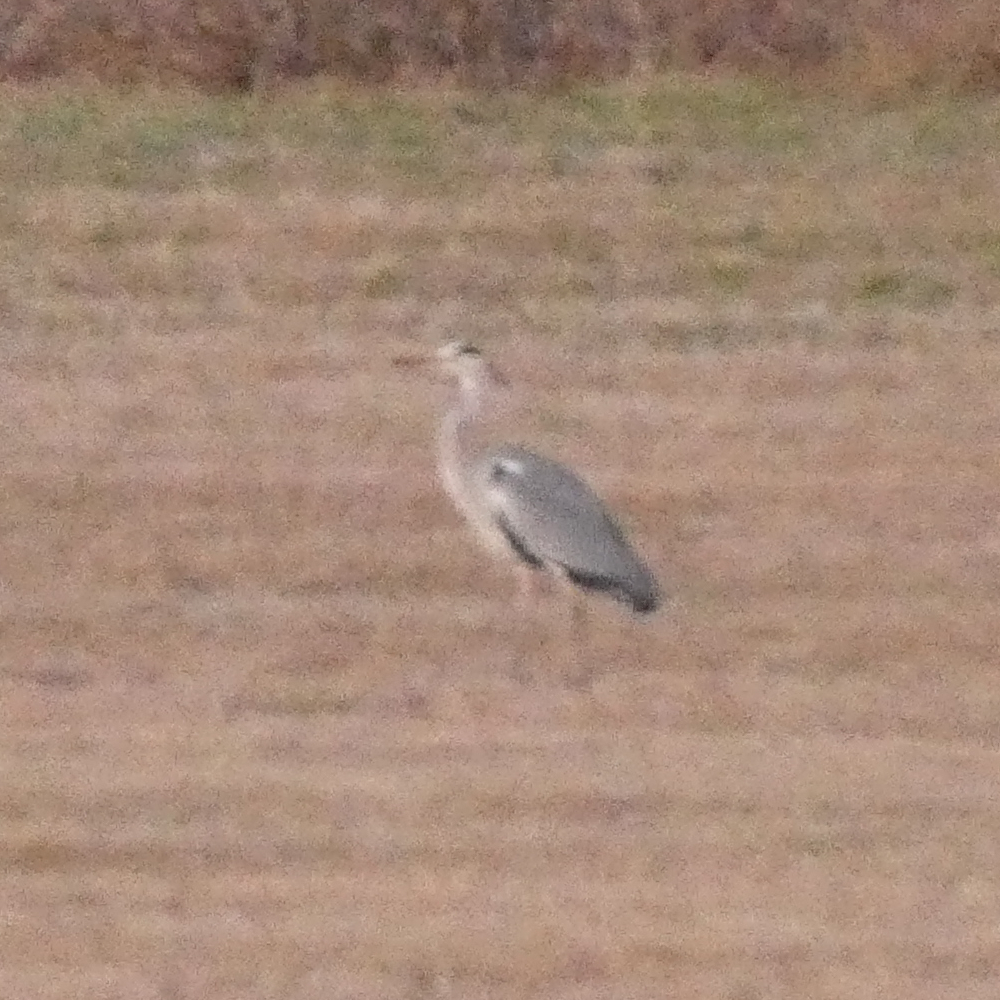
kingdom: Animalia
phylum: Chordata
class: Aves
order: Pelecaniformes
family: Ardeidae
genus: Ardea
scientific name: Ardea cinerea
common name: Grey heron
